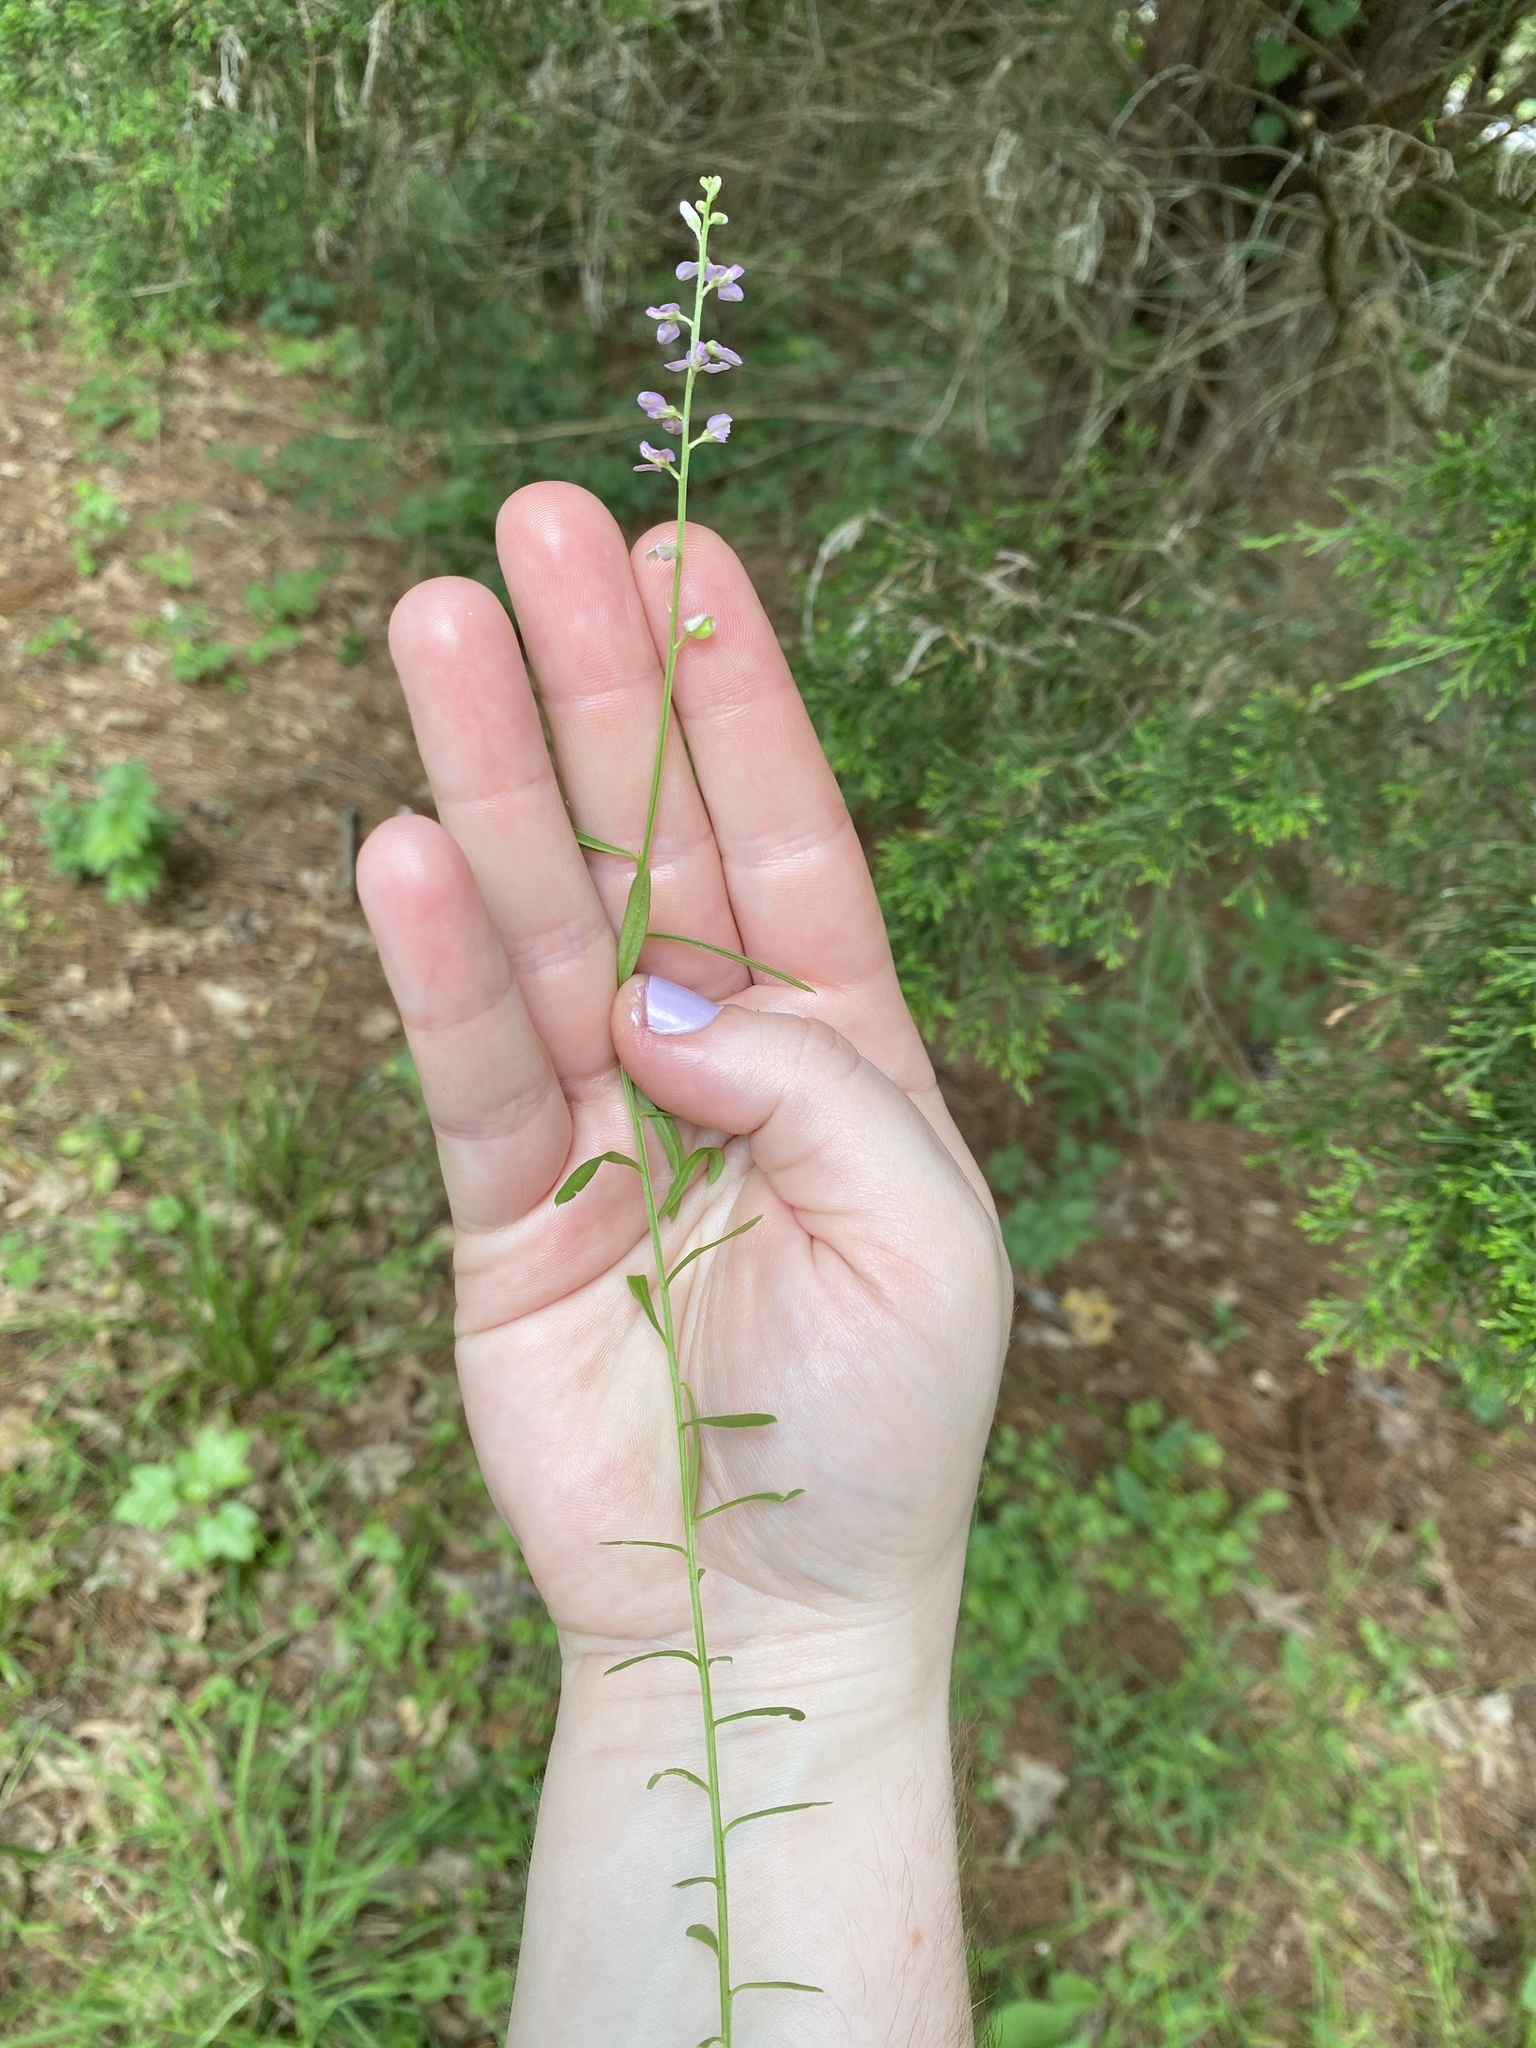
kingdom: Plantae
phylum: Tracheophyta
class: Magnoliopsida
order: Fabales
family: Polygalaceae
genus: Polygala
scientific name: Polygala polygama
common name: Bitter milkwort
